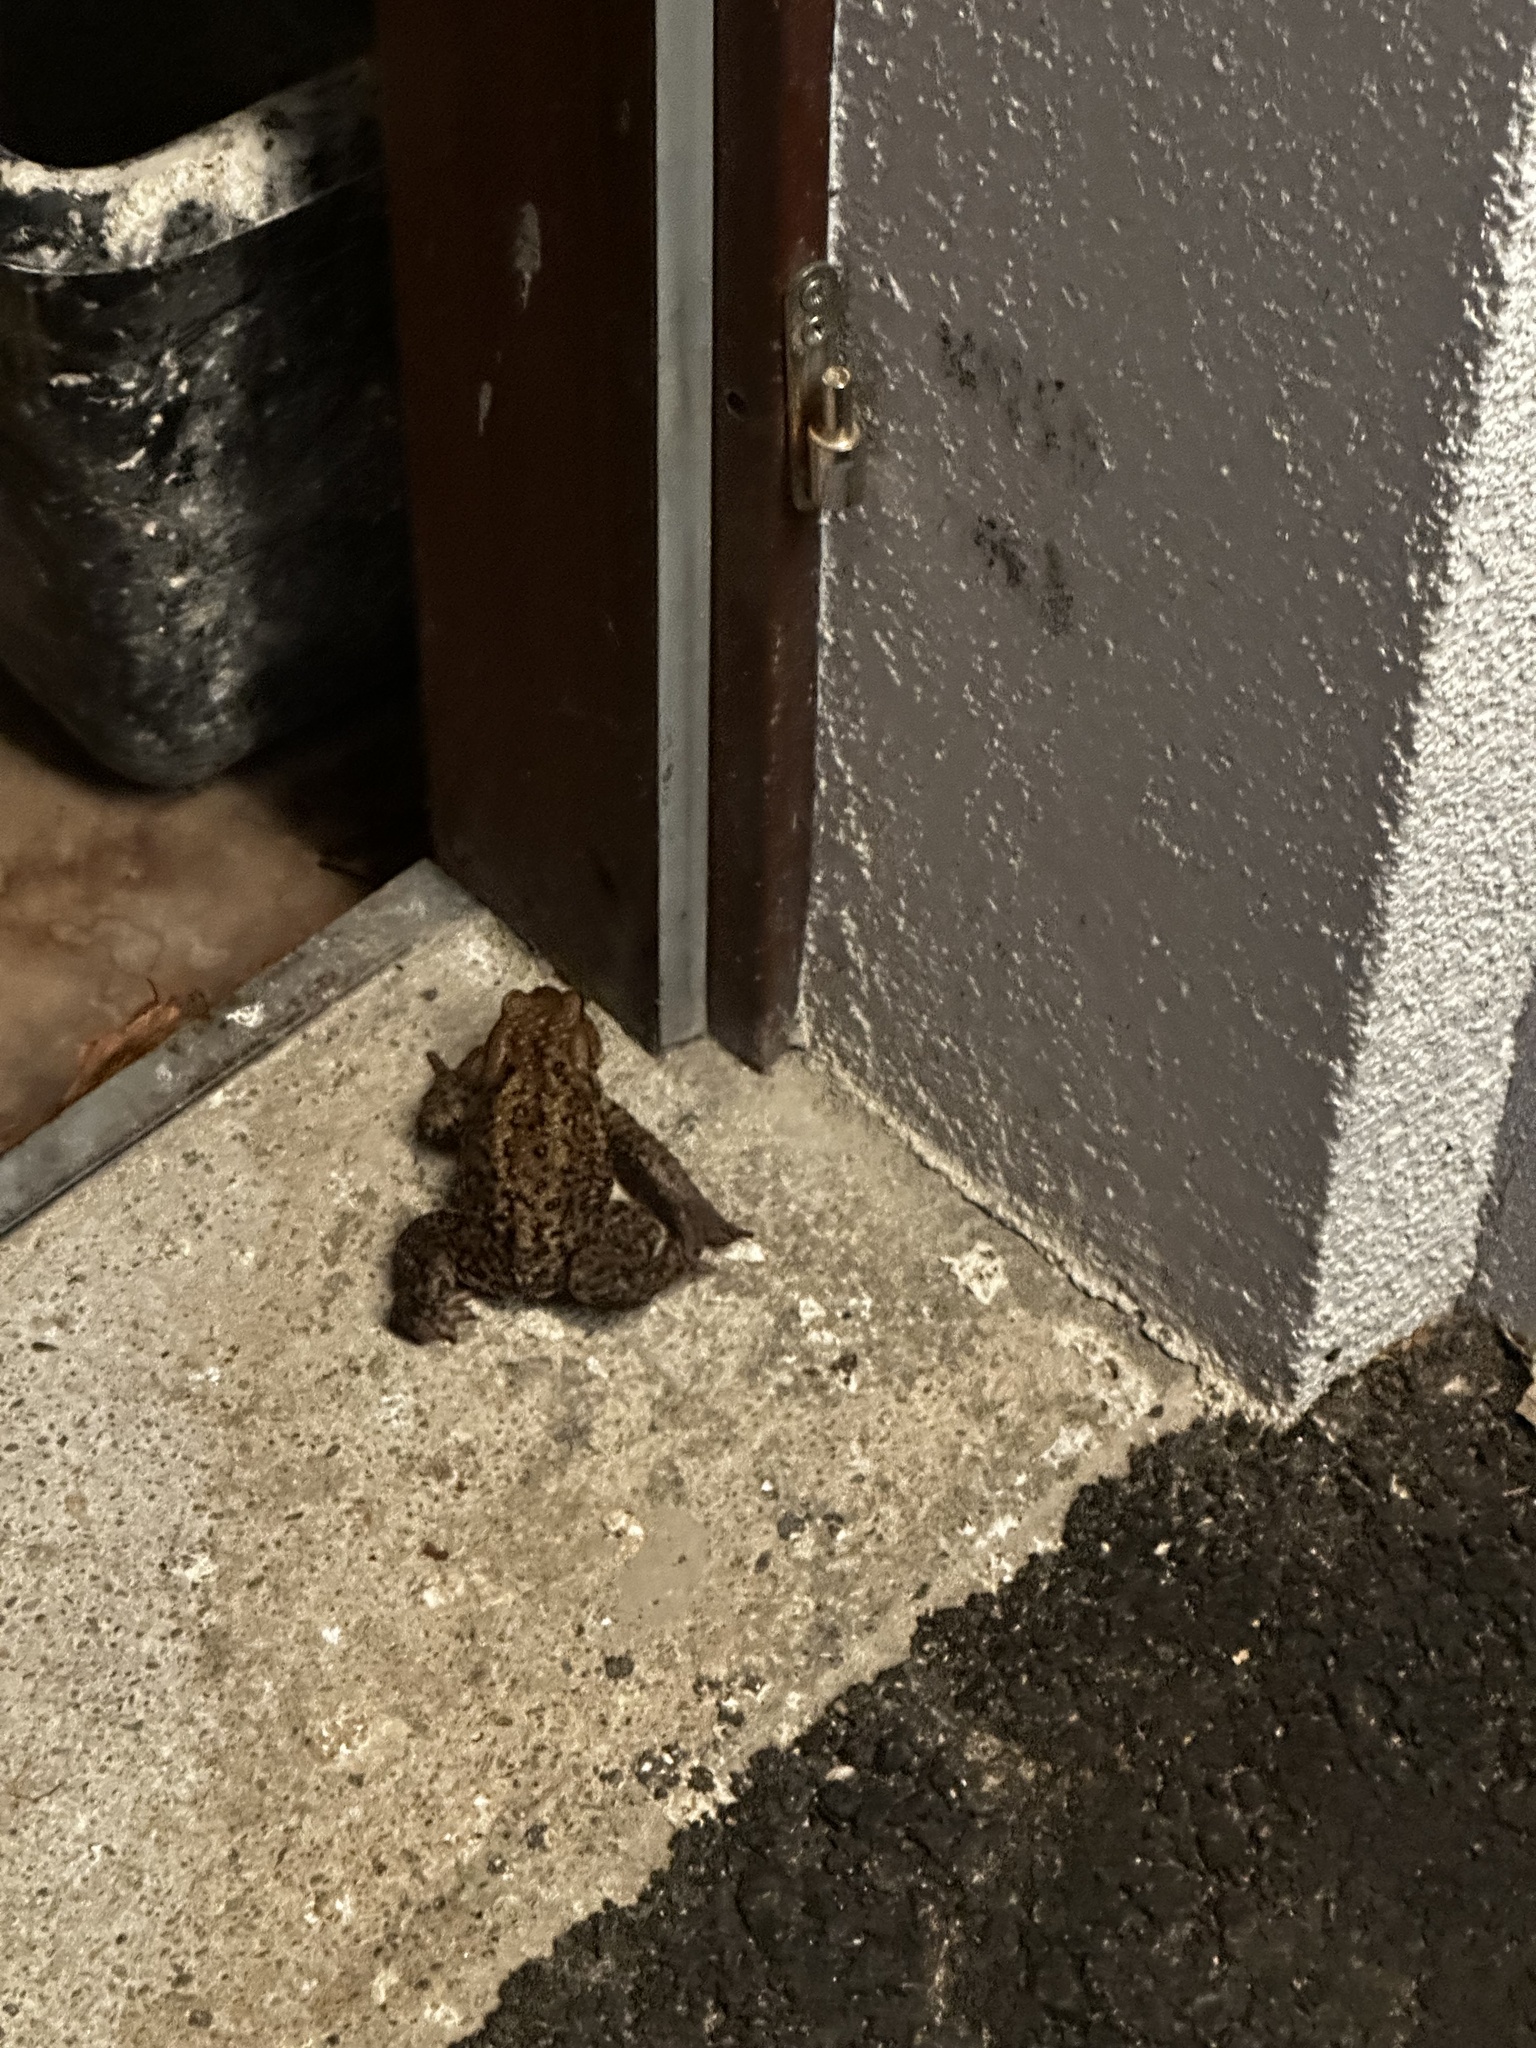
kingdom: Animalia
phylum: Chordata
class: Amphibia
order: Anura
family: Bufonidae
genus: Bufo
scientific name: Bufo bufo
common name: Common toad
